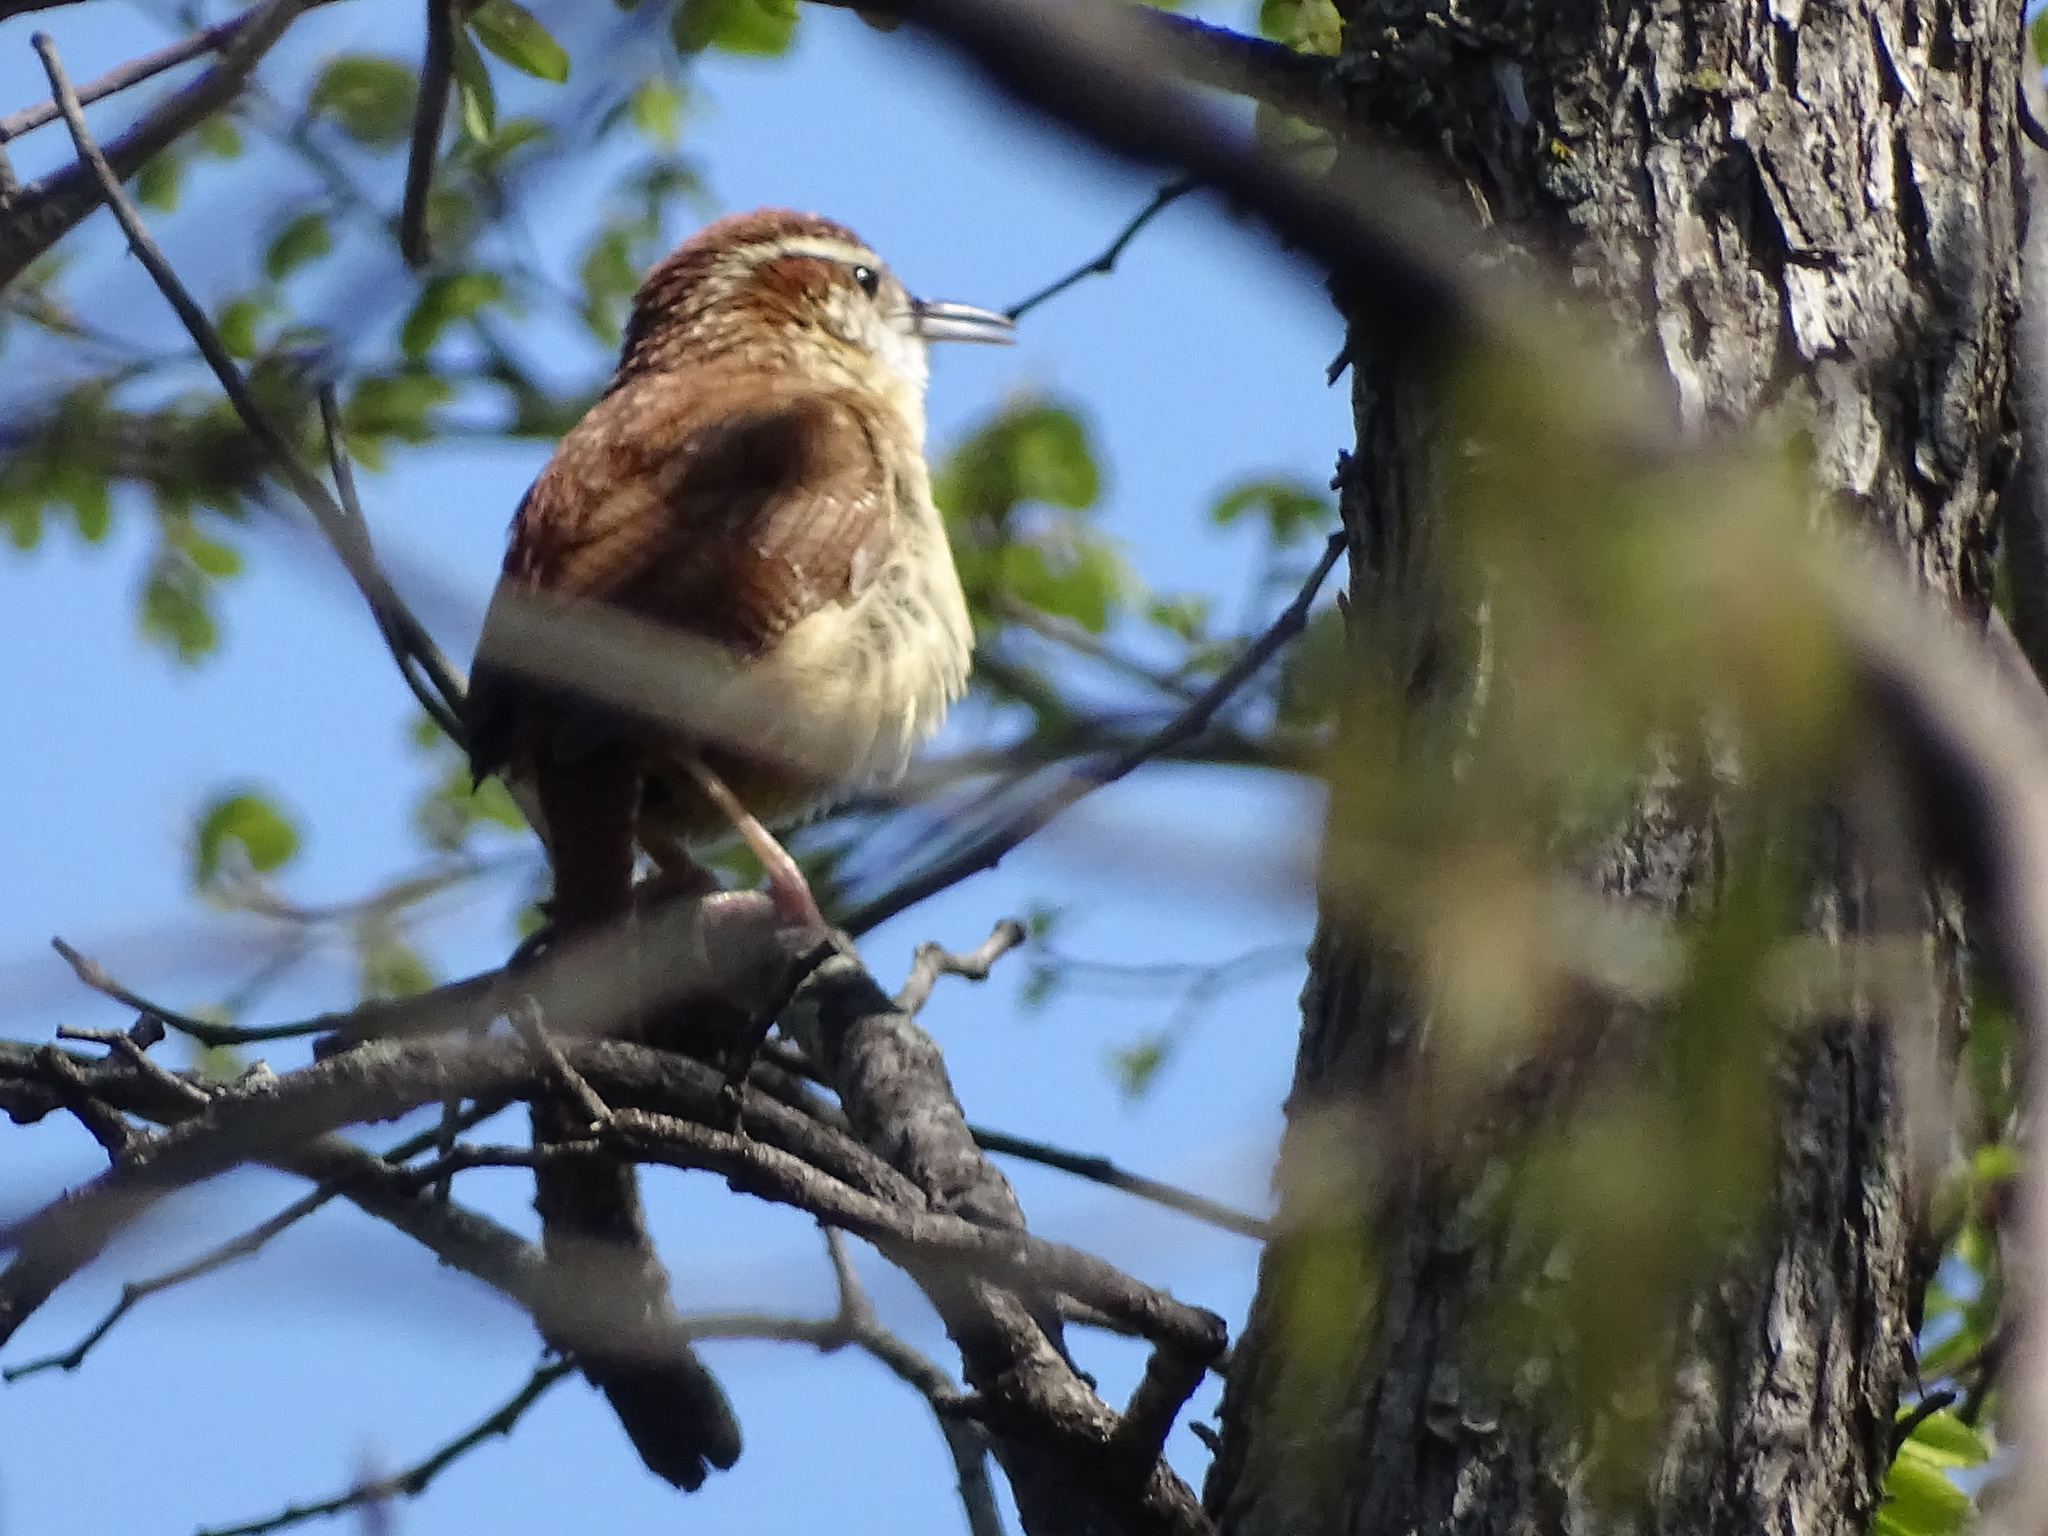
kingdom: Animalia
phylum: Chordata
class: Aves
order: Passeriformes
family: Troglodytidae
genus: Thryothorus
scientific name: Thryothorus ludovicianus
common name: Carolina wren
